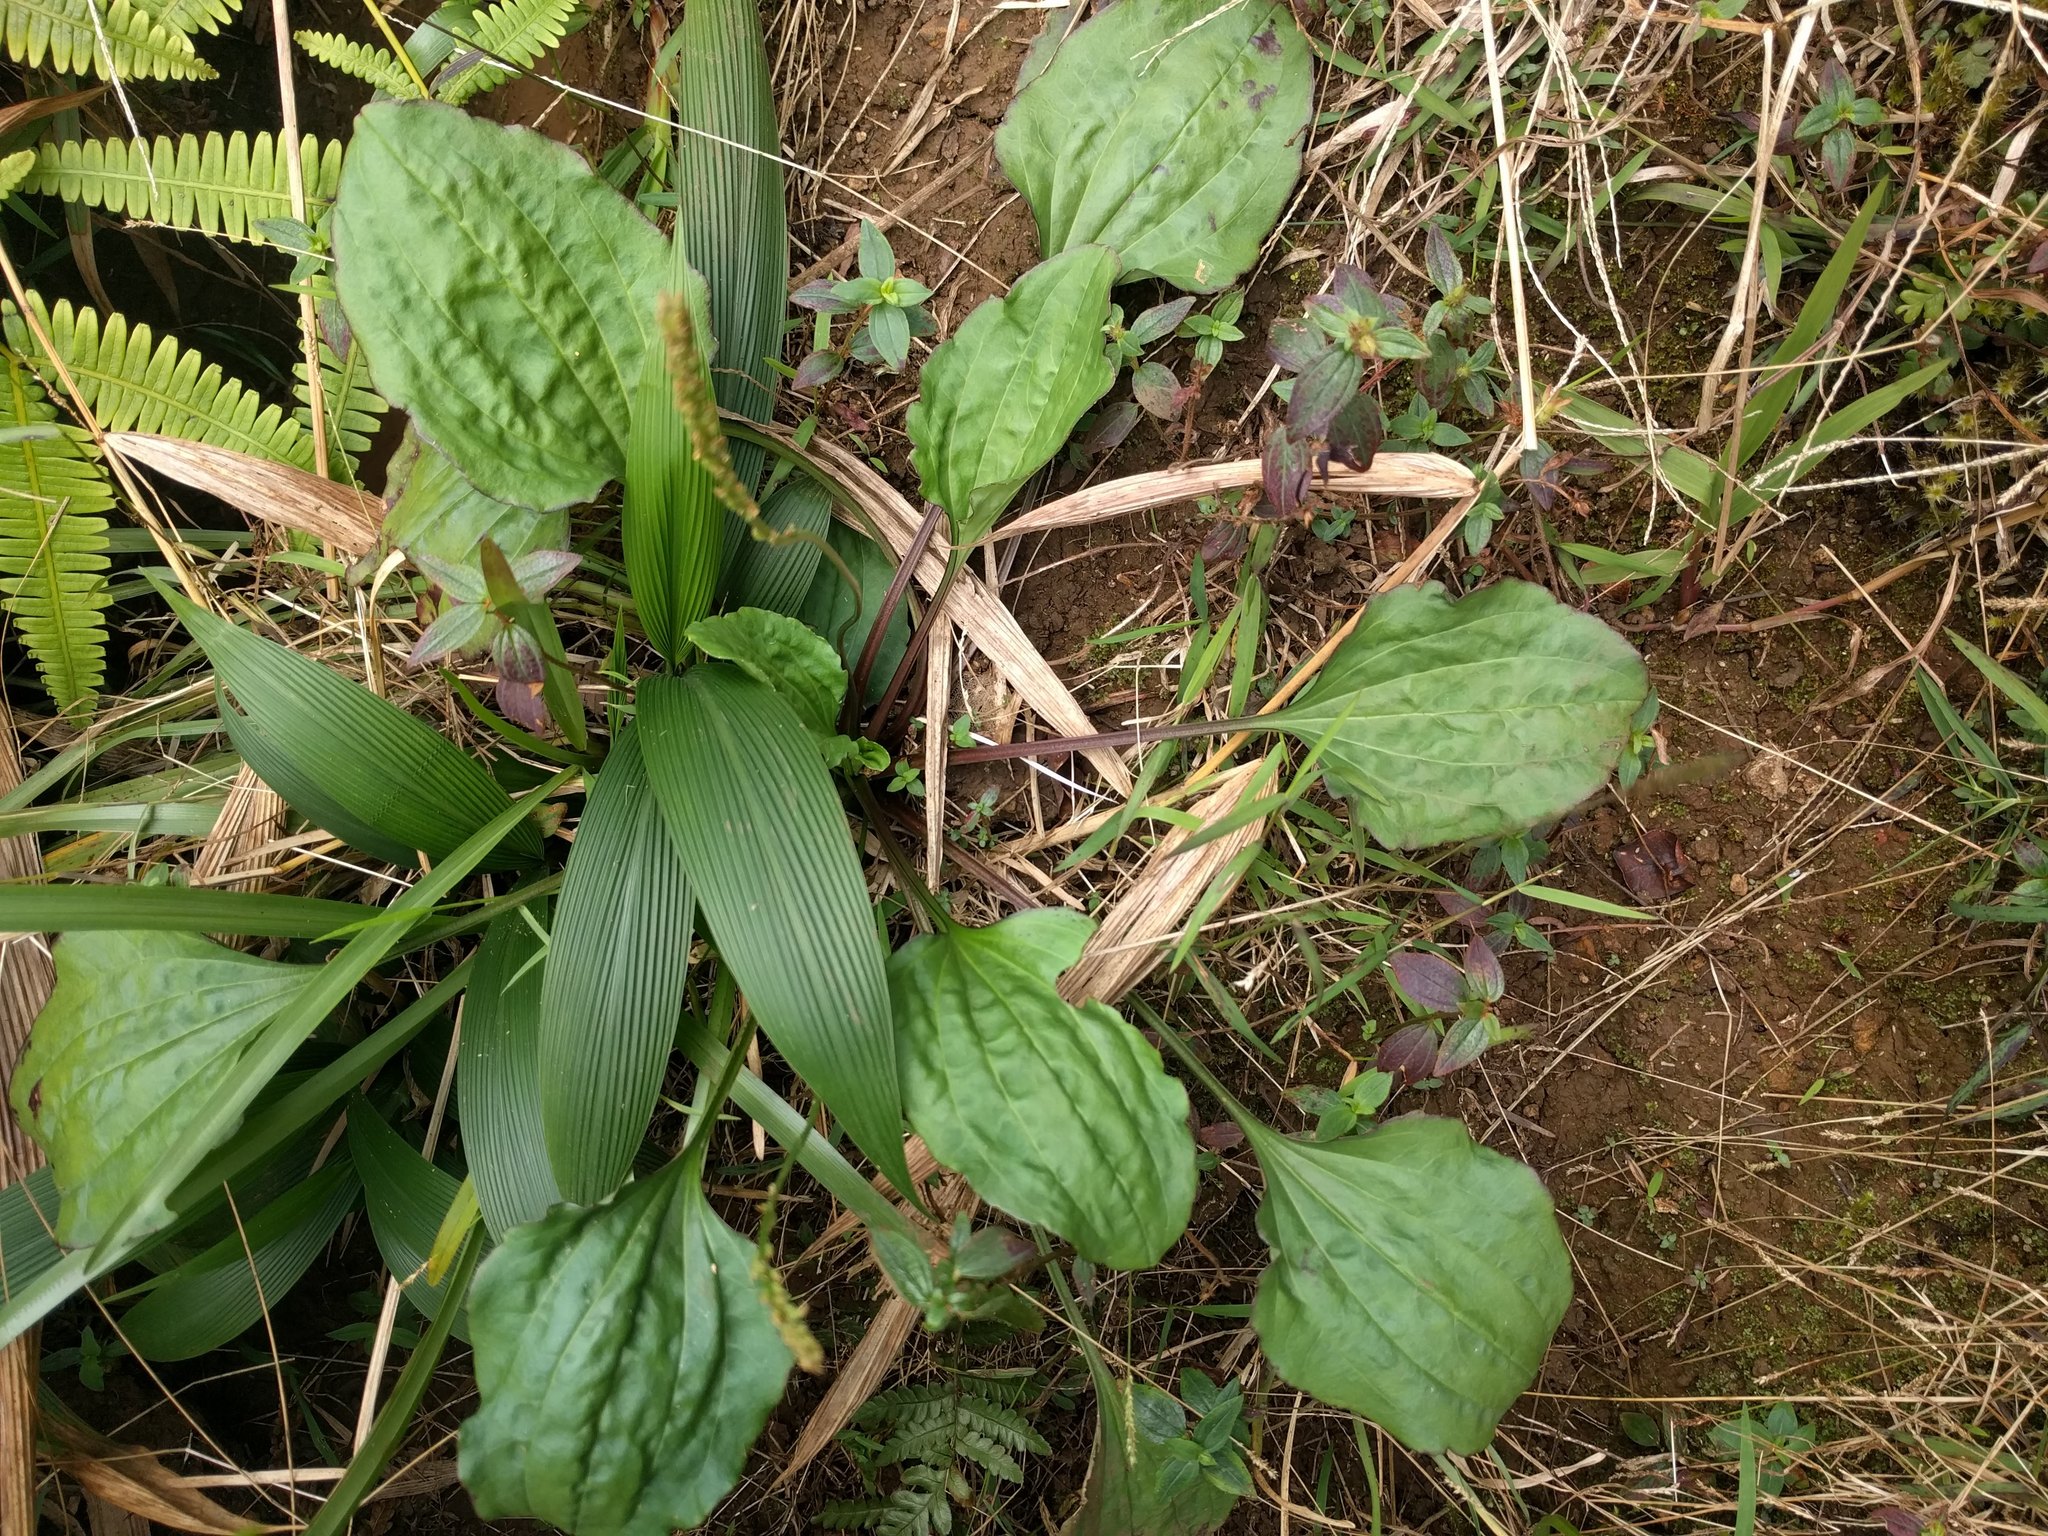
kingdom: Plantae
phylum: Tracheophyta
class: Magnoliopsida
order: Lamiales
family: Plantaginaceae
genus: Plantago
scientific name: Plantago rugelii
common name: American plantain
